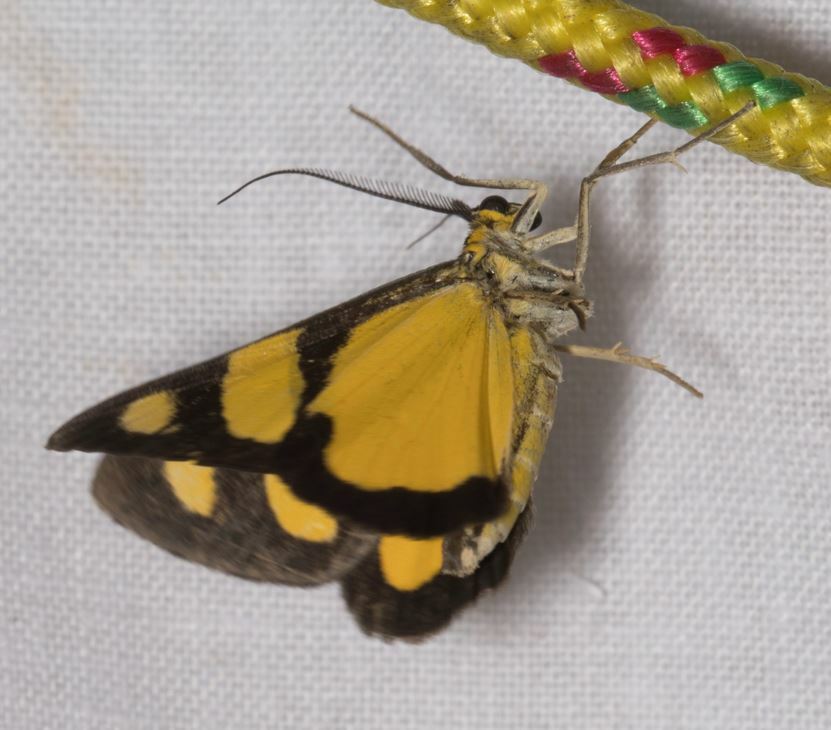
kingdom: Animalia
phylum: Arthropoda
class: Insecta
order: Lepidoptera
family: Notodontidae
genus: Phaeochlaena
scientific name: Phaeochlaena solilucis
